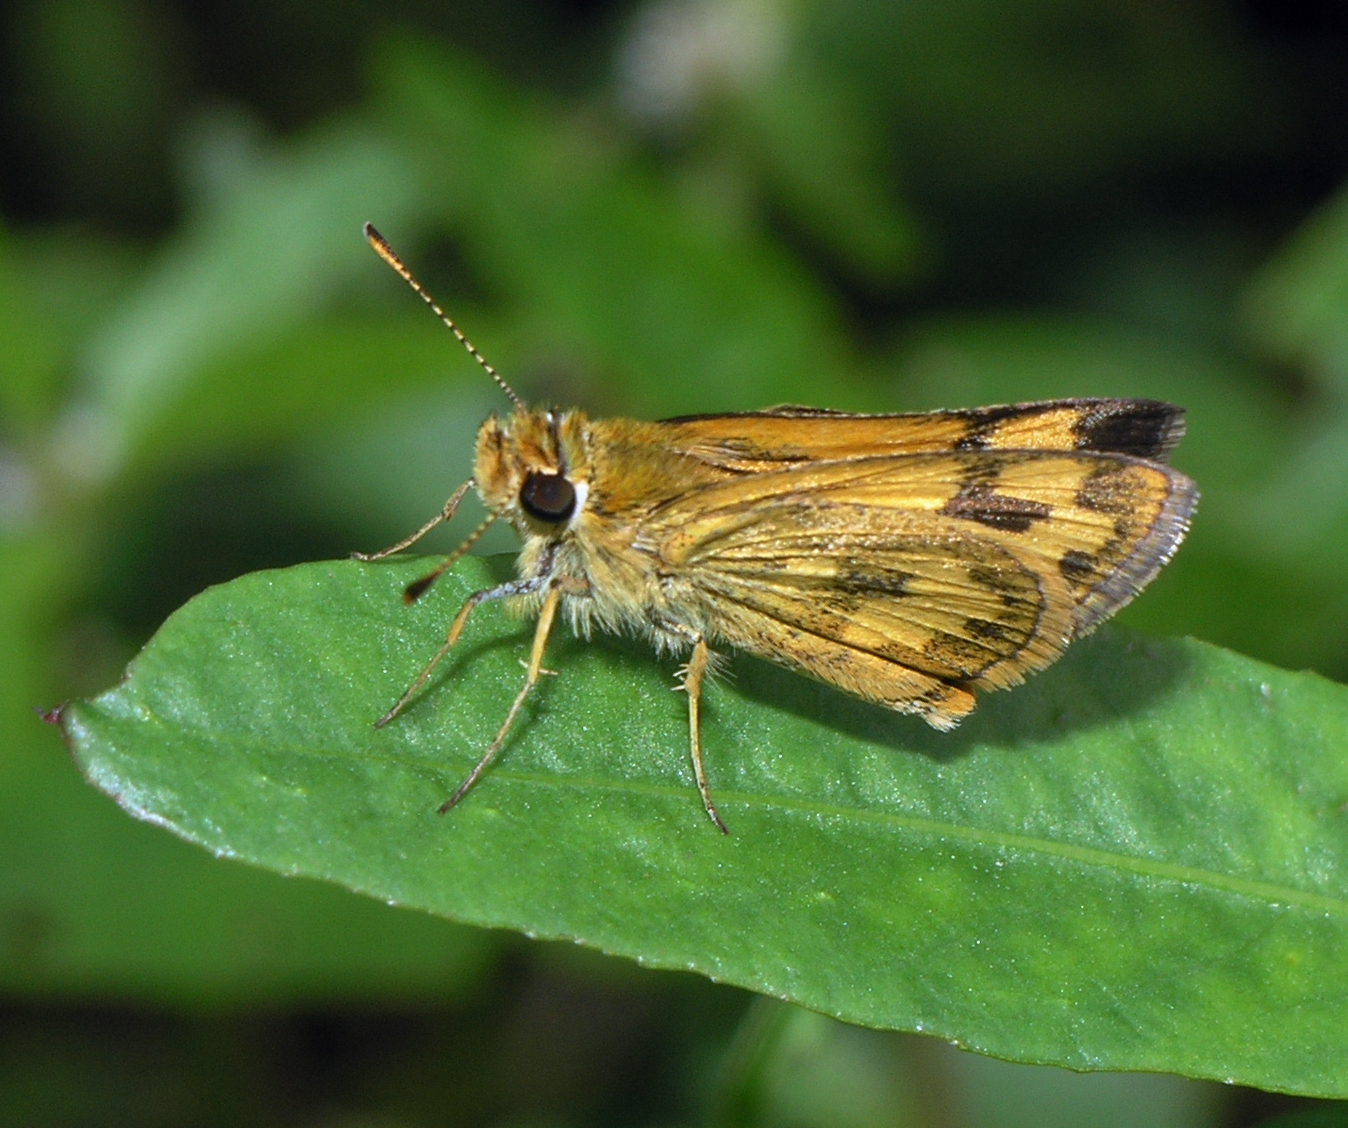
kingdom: Animalia
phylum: Arthropoda
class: Insecta
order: Lepidoptera
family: Hesperiidae
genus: Taractrocera
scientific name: Taractrocera archias
